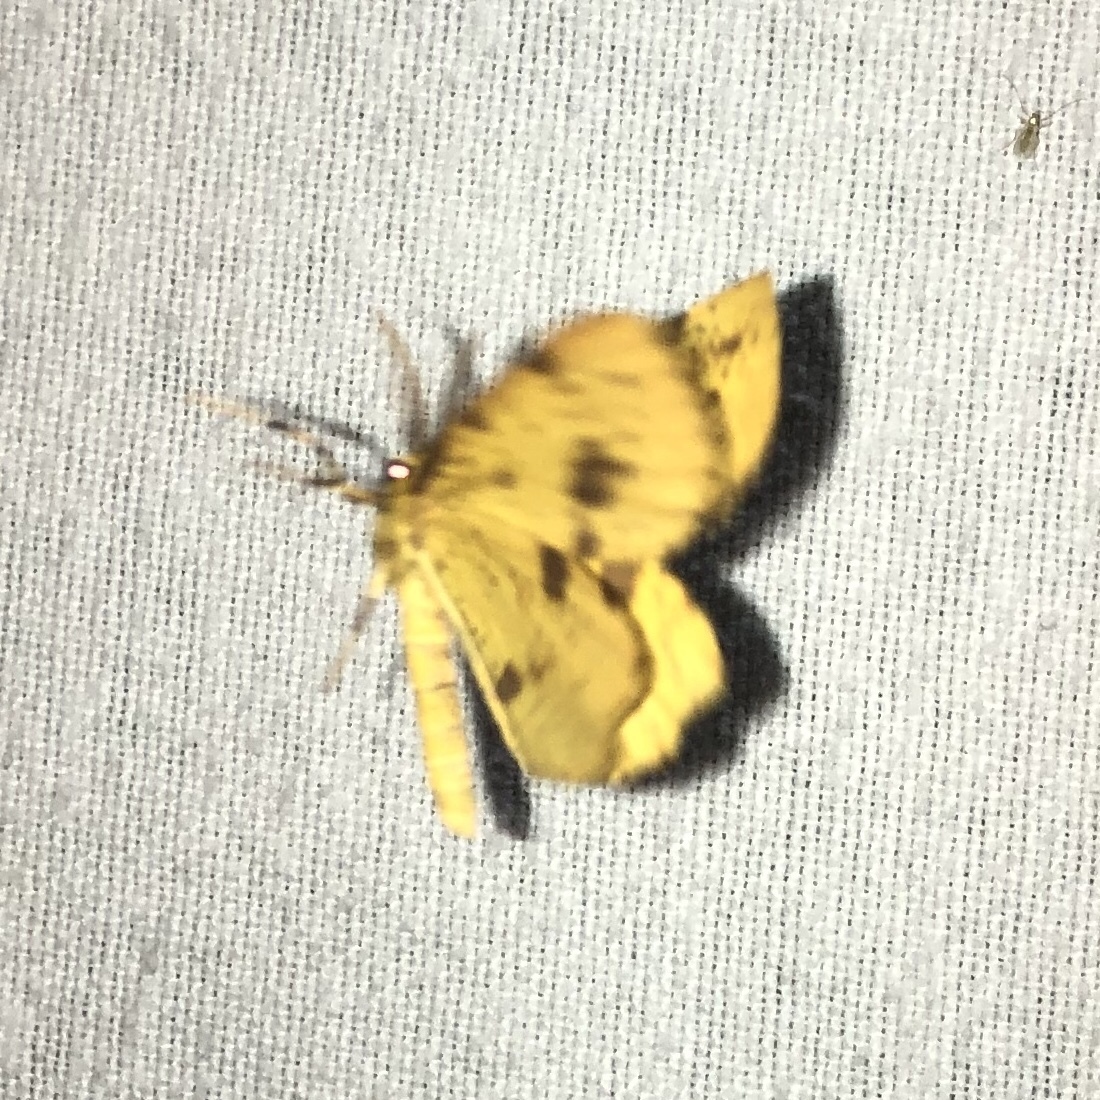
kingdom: Animalia
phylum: Arthropoda
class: Insecta
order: Lepidoptera
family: Geometridae
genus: Xanthotype
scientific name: Xanthotype
